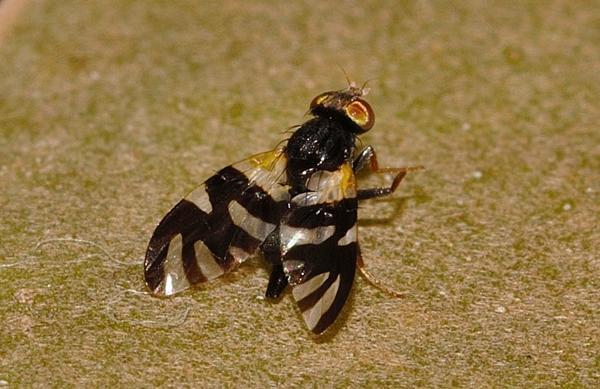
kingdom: Animalia
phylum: Arthropoda
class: Insecta
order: Diptera
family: Tephritidae
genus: Sphaeniscus
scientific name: Sphaeniscus atilius
